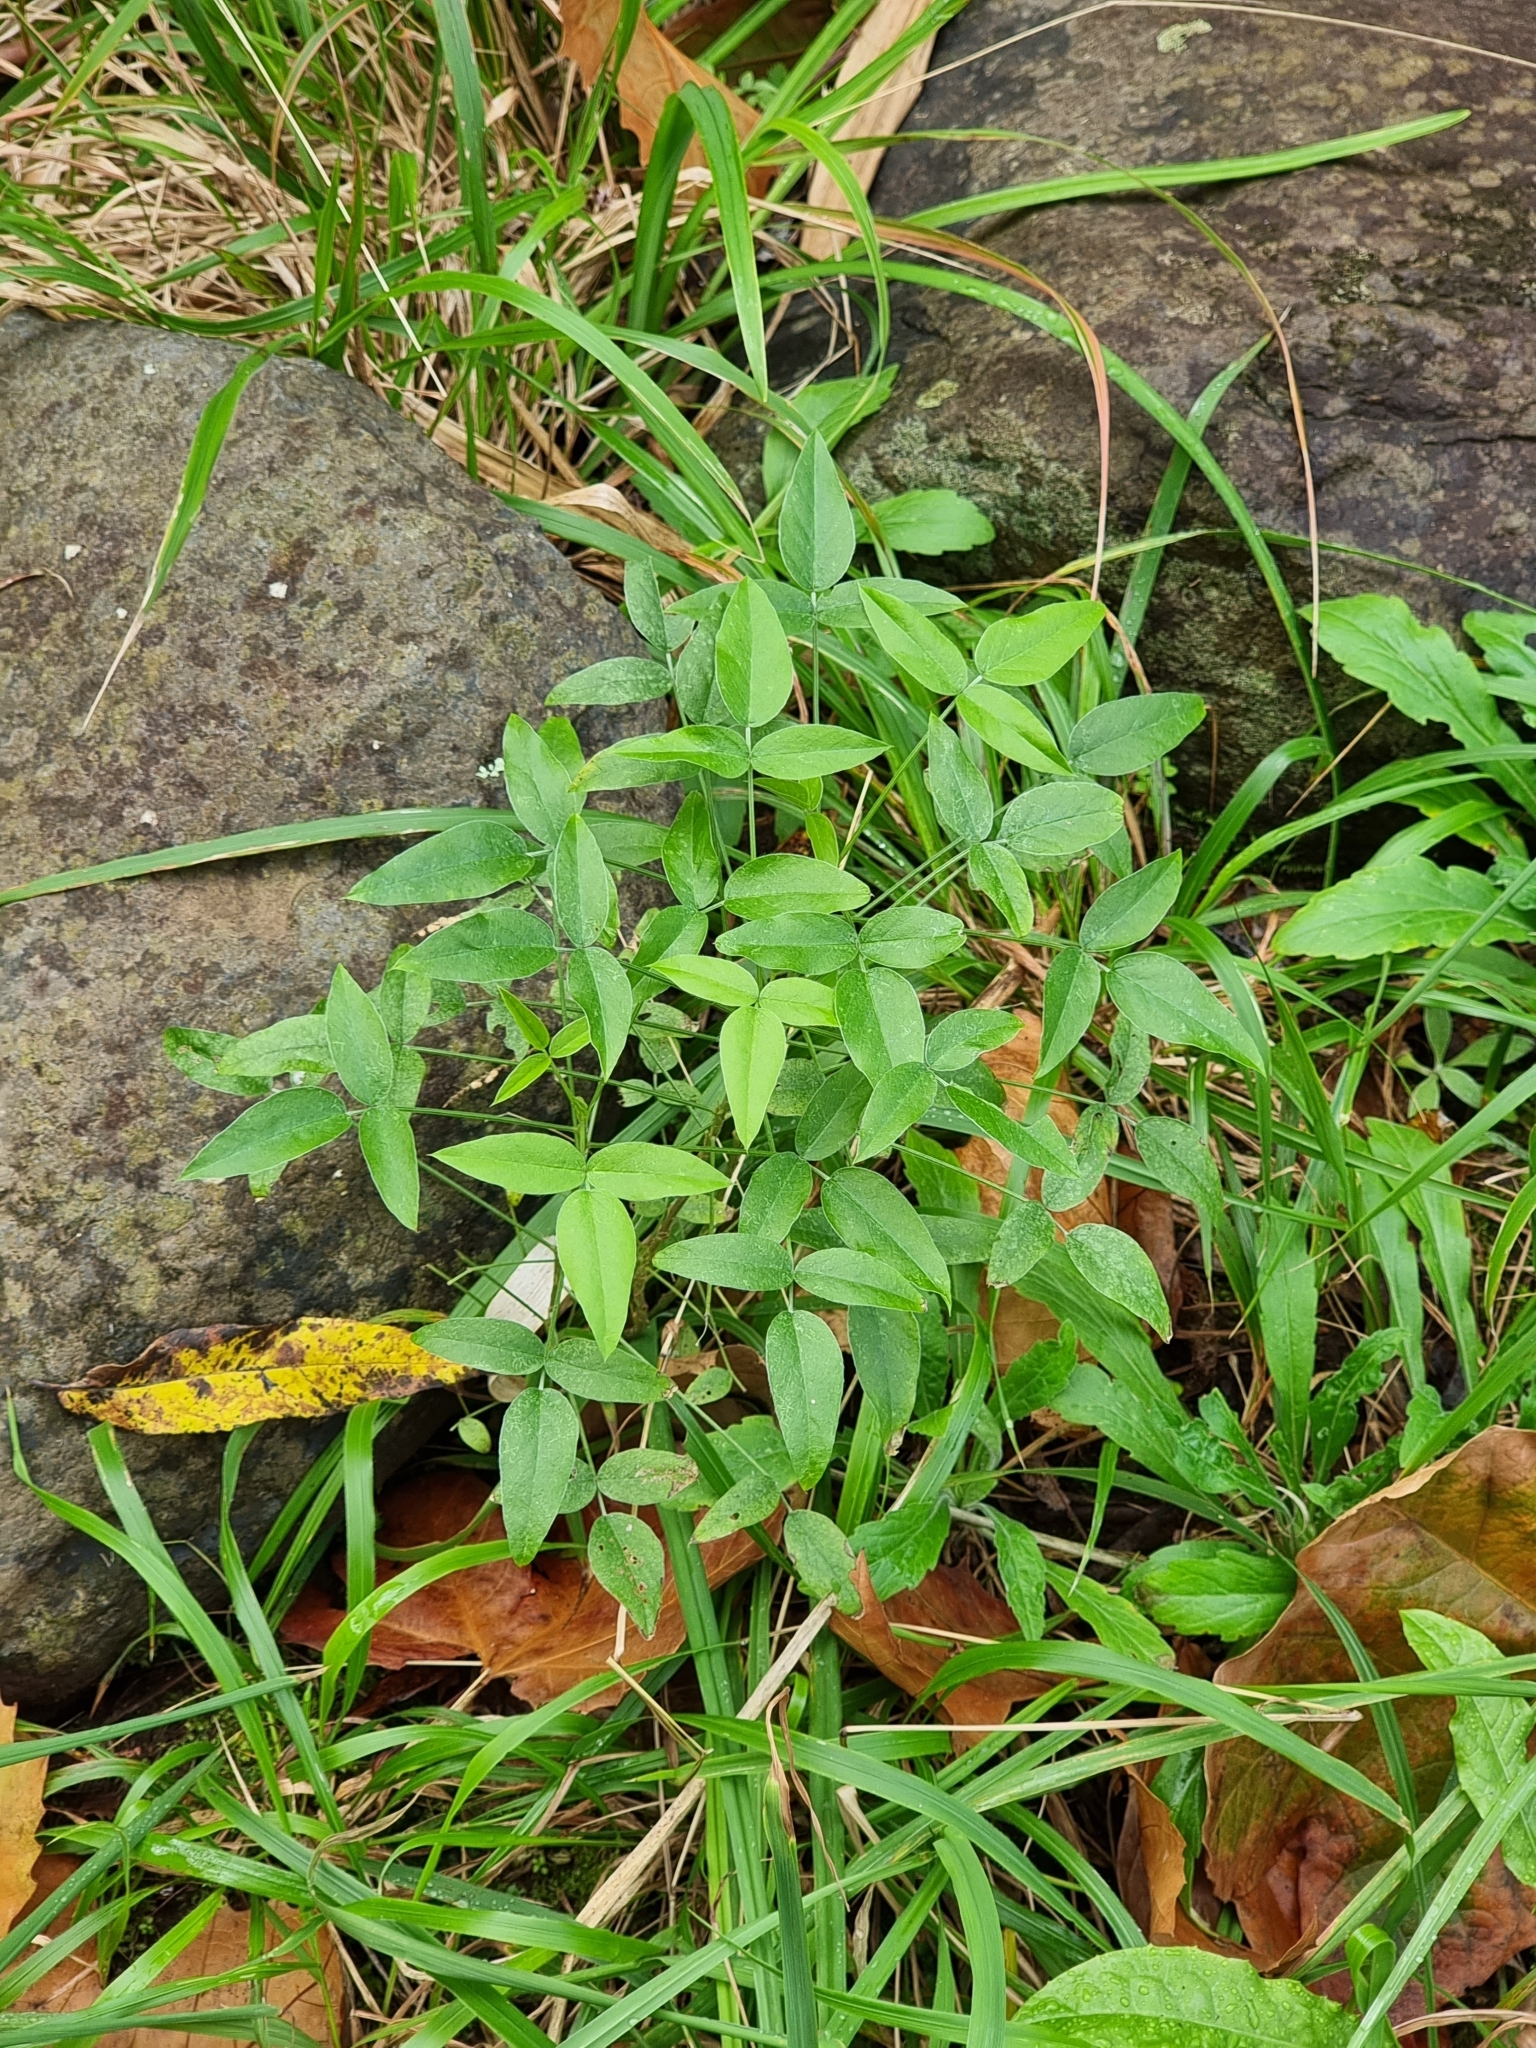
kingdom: Plantae
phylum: Tracheophyta
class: Magnoliopsida
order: Fabales
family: Fabaceae
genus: Bituminaria
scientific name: Bituminaria bituminosa
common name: Arabian pea
